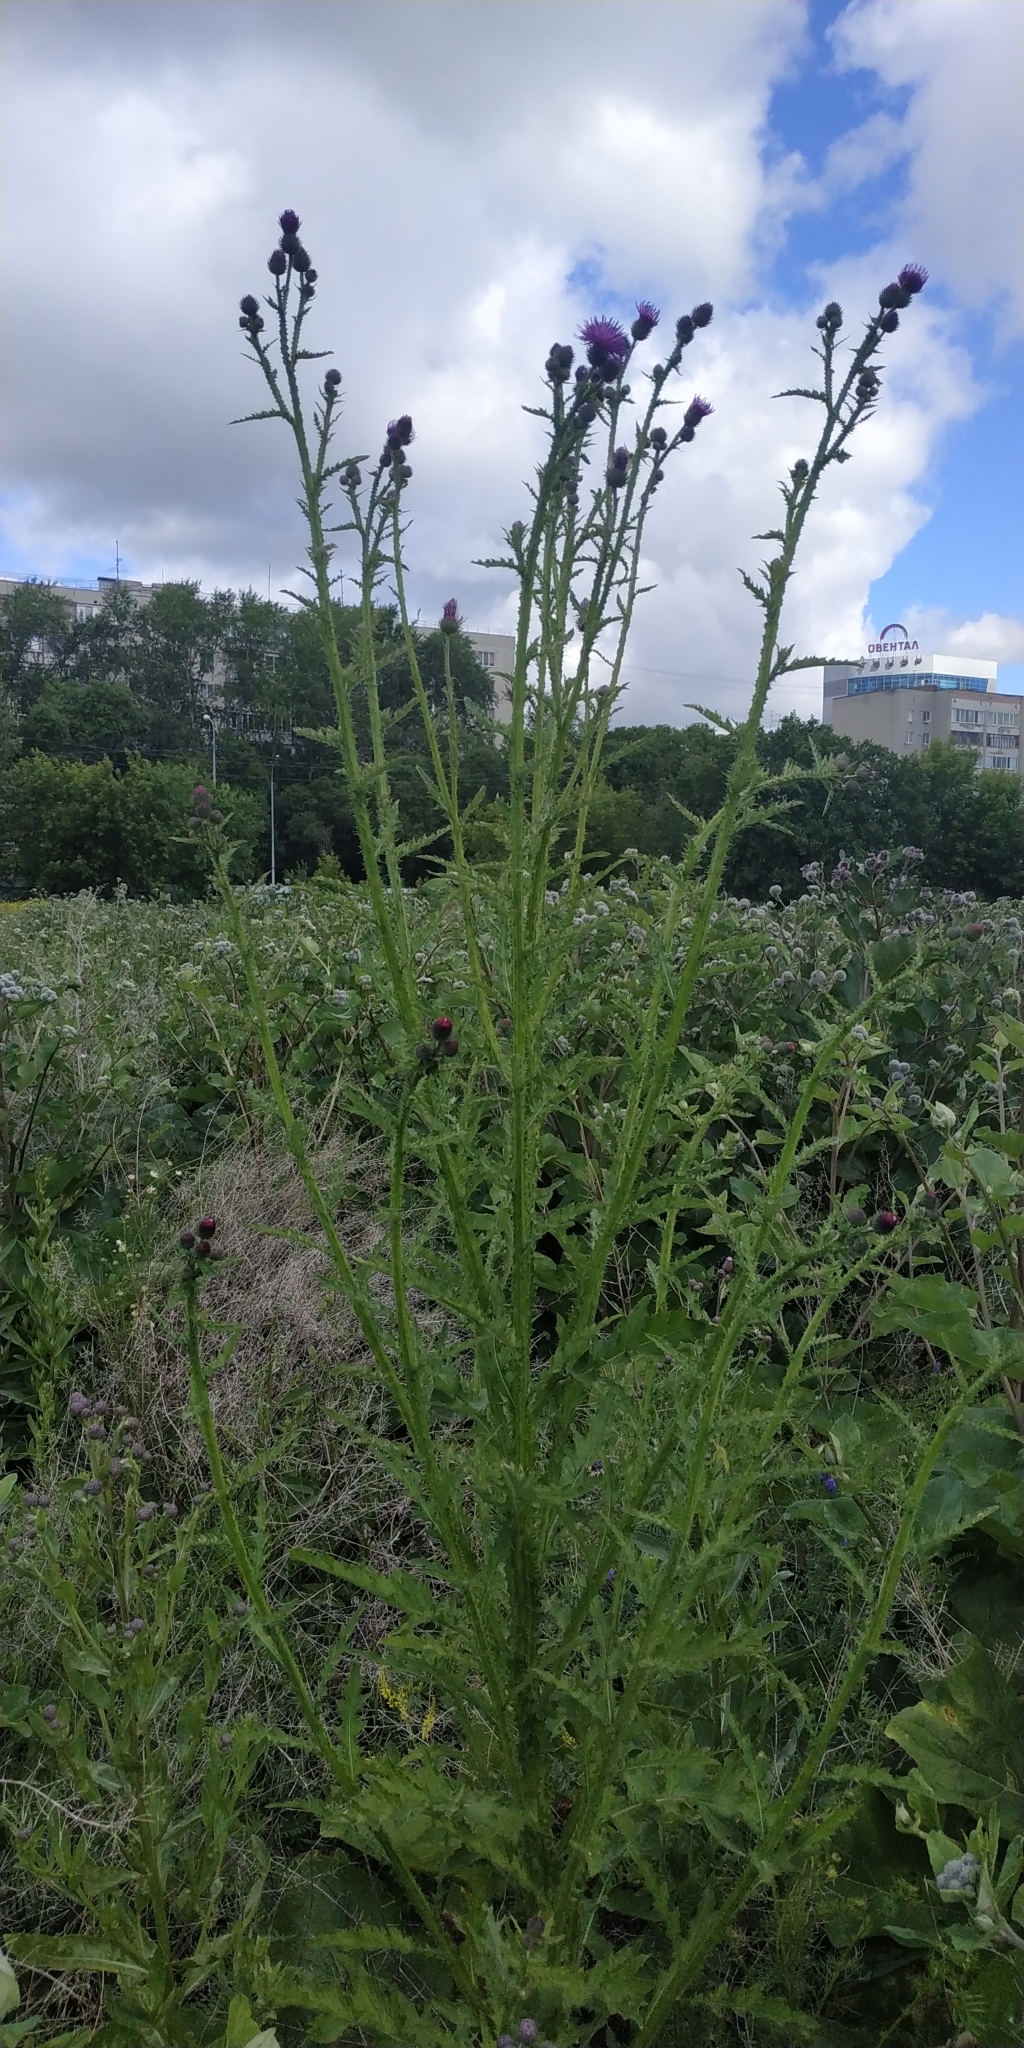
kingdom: Plantae
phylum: Tracheophyta
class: Magnoliopsida
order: Asterales
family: Asteraceae
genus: Carduus
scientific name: Carduus crispus
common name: Welted thistle
